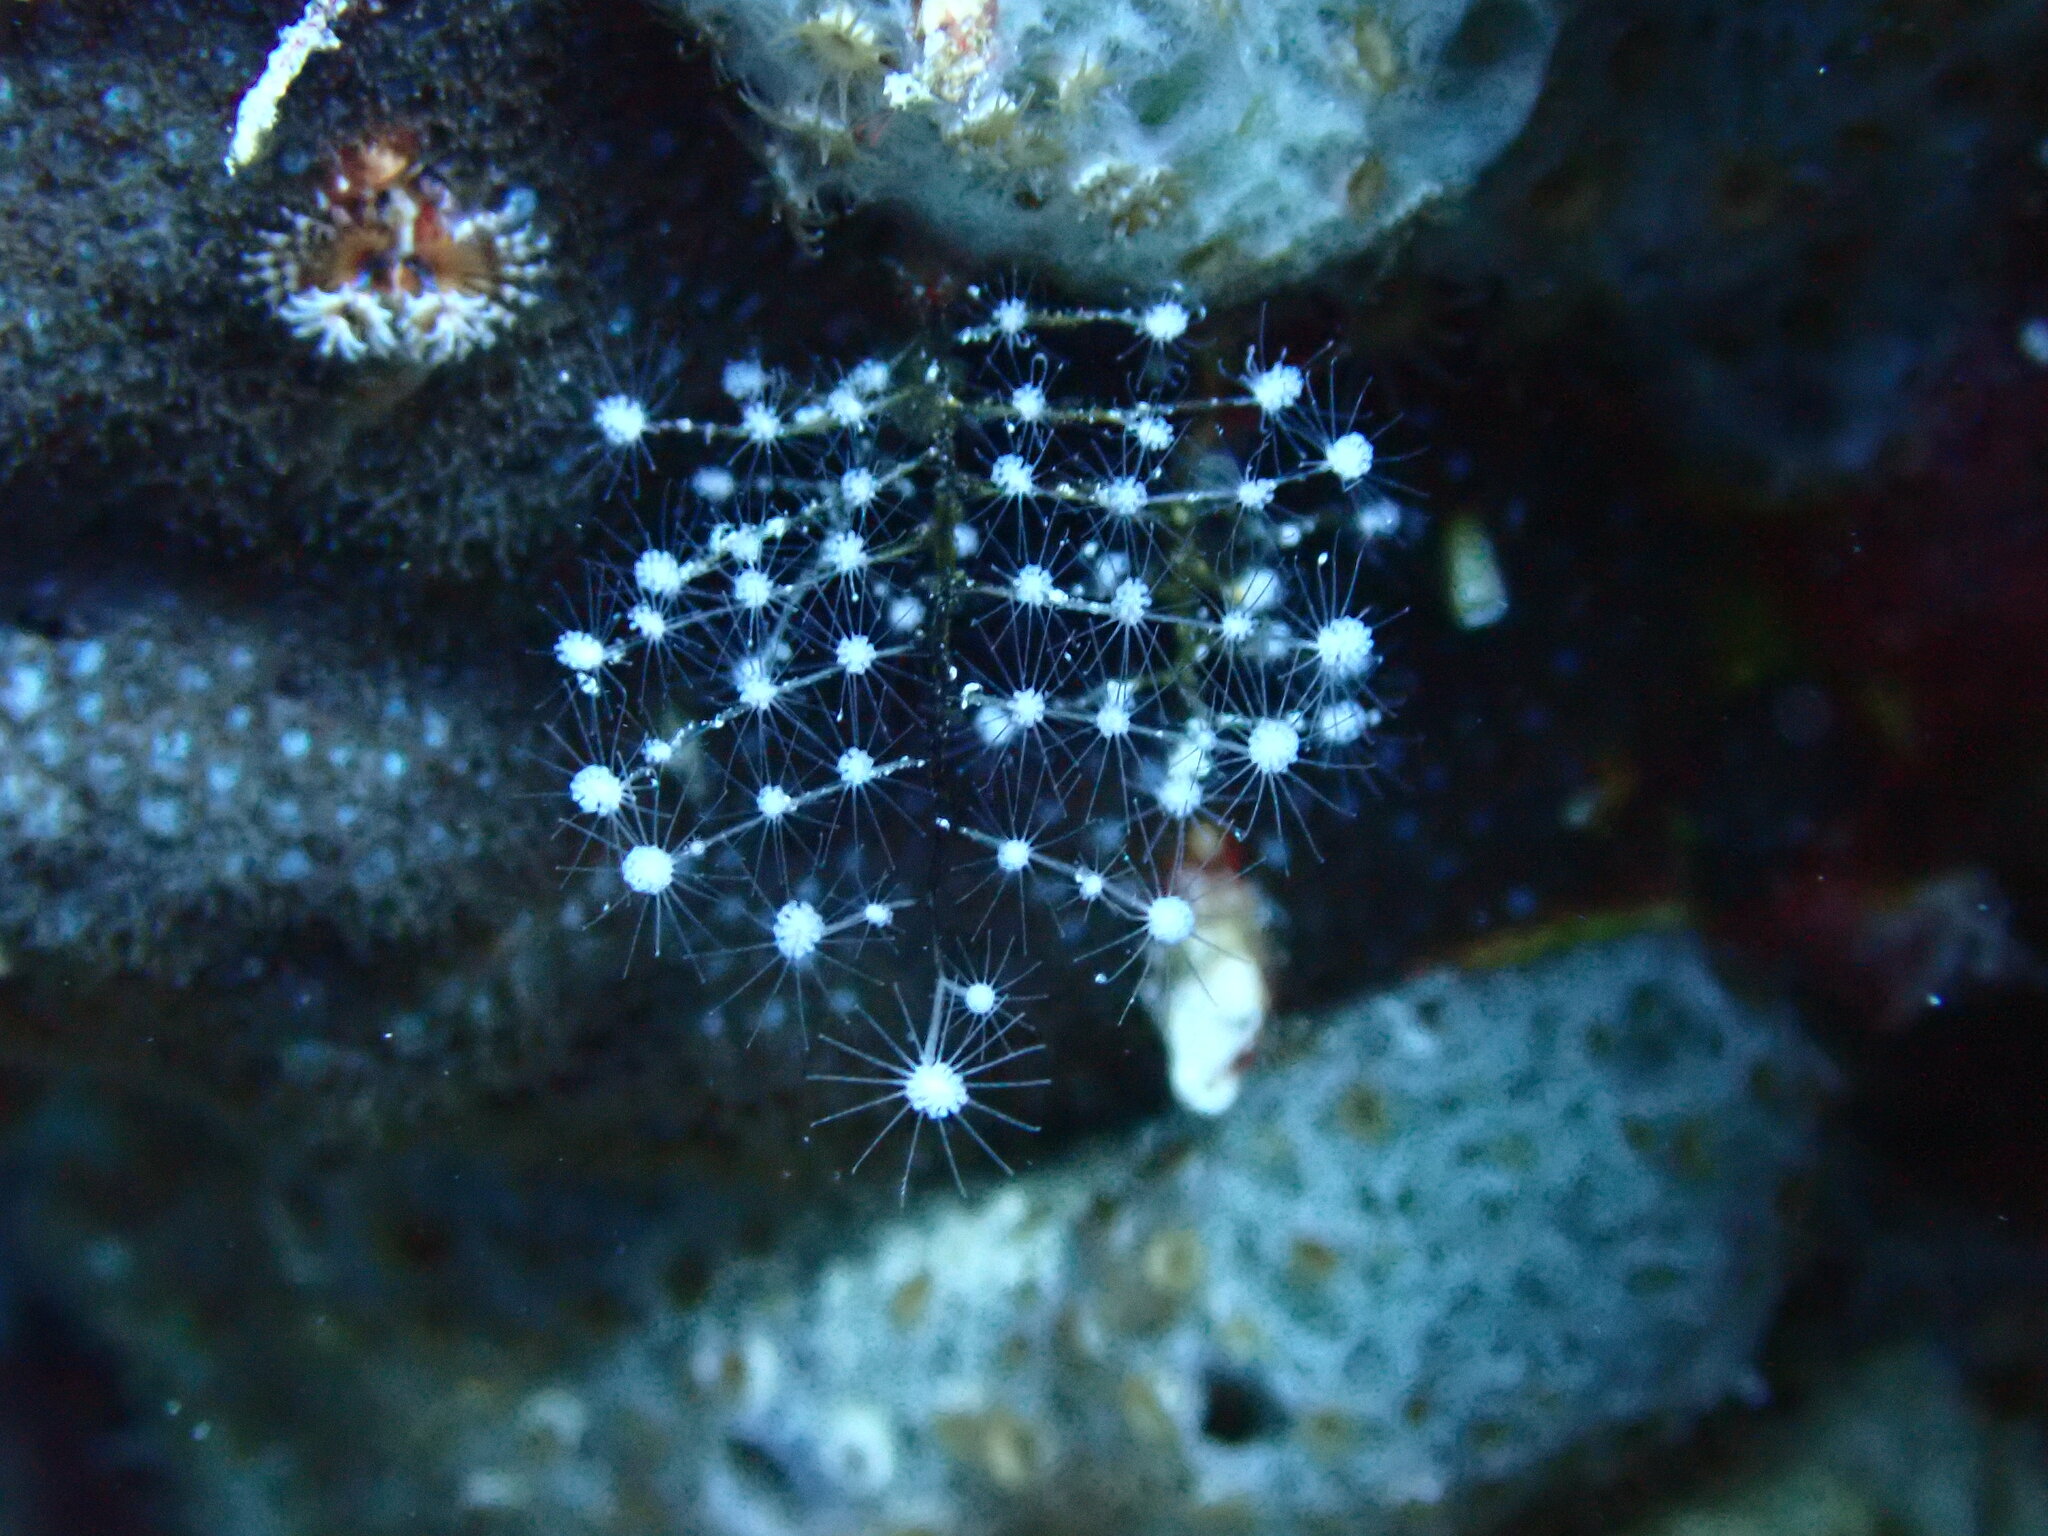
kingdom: Animalia
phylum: Cnidaria
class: Hydrozoa
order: Anthoathecata
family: Pennariidae
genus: Pennaria
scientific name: Pennaria disticha
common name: Feather hydroid
